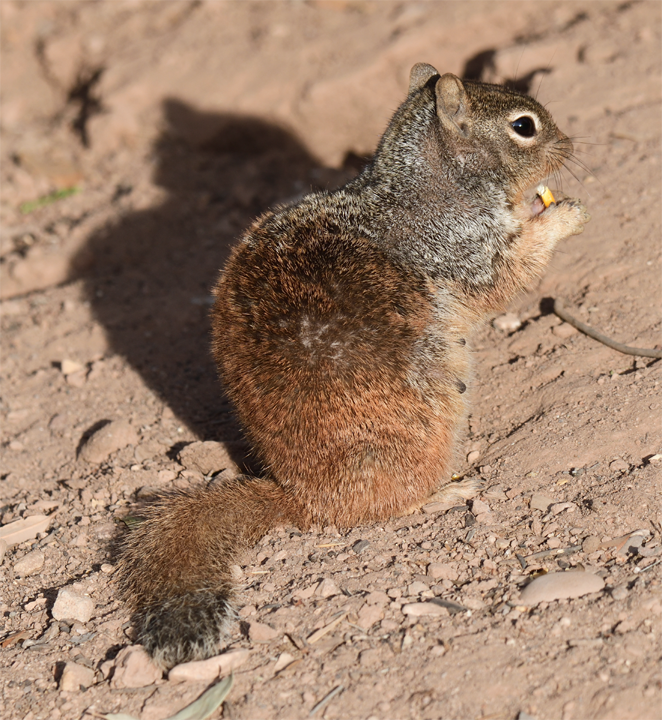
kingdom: Animalia
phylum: Chordata
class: Mammalia
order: Rodentia
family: Sciuridae
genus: Otospermophilus
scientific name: Otospermophilus variegatus
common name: Rock squirrel
